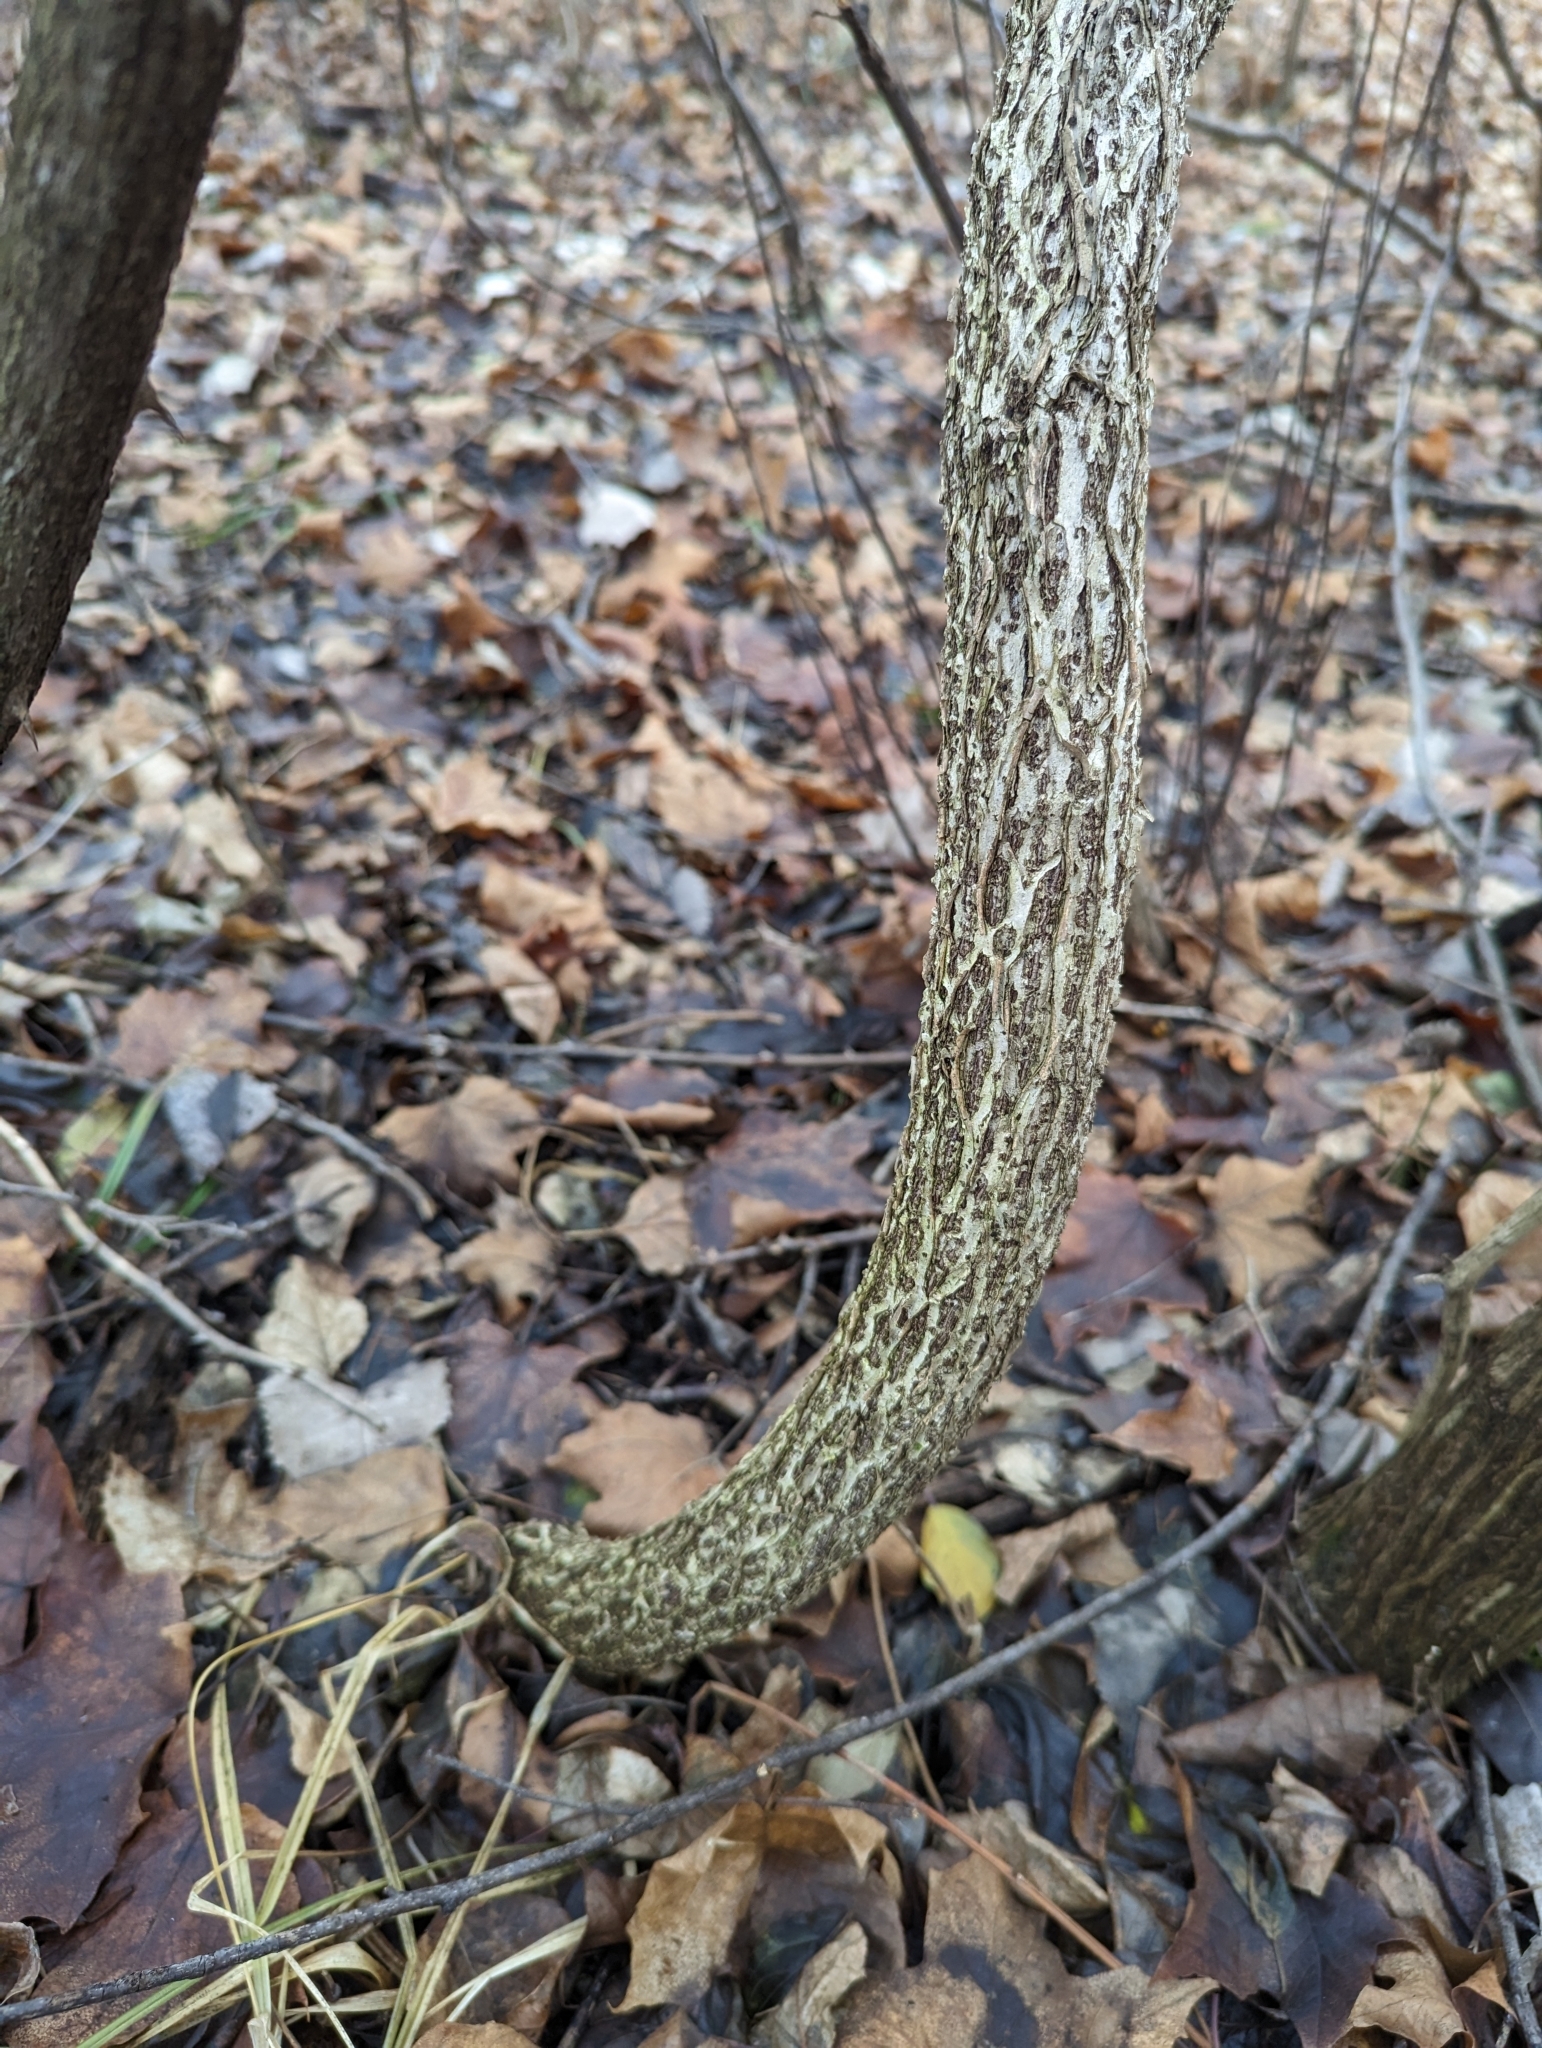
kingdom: Plantae
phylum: Tracheophyta
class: Magnoliopsida
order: Celastrales
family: Celastraceae
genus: Celastrus
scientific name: Celastrus orbiculatus
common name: Oriental bittersweet
